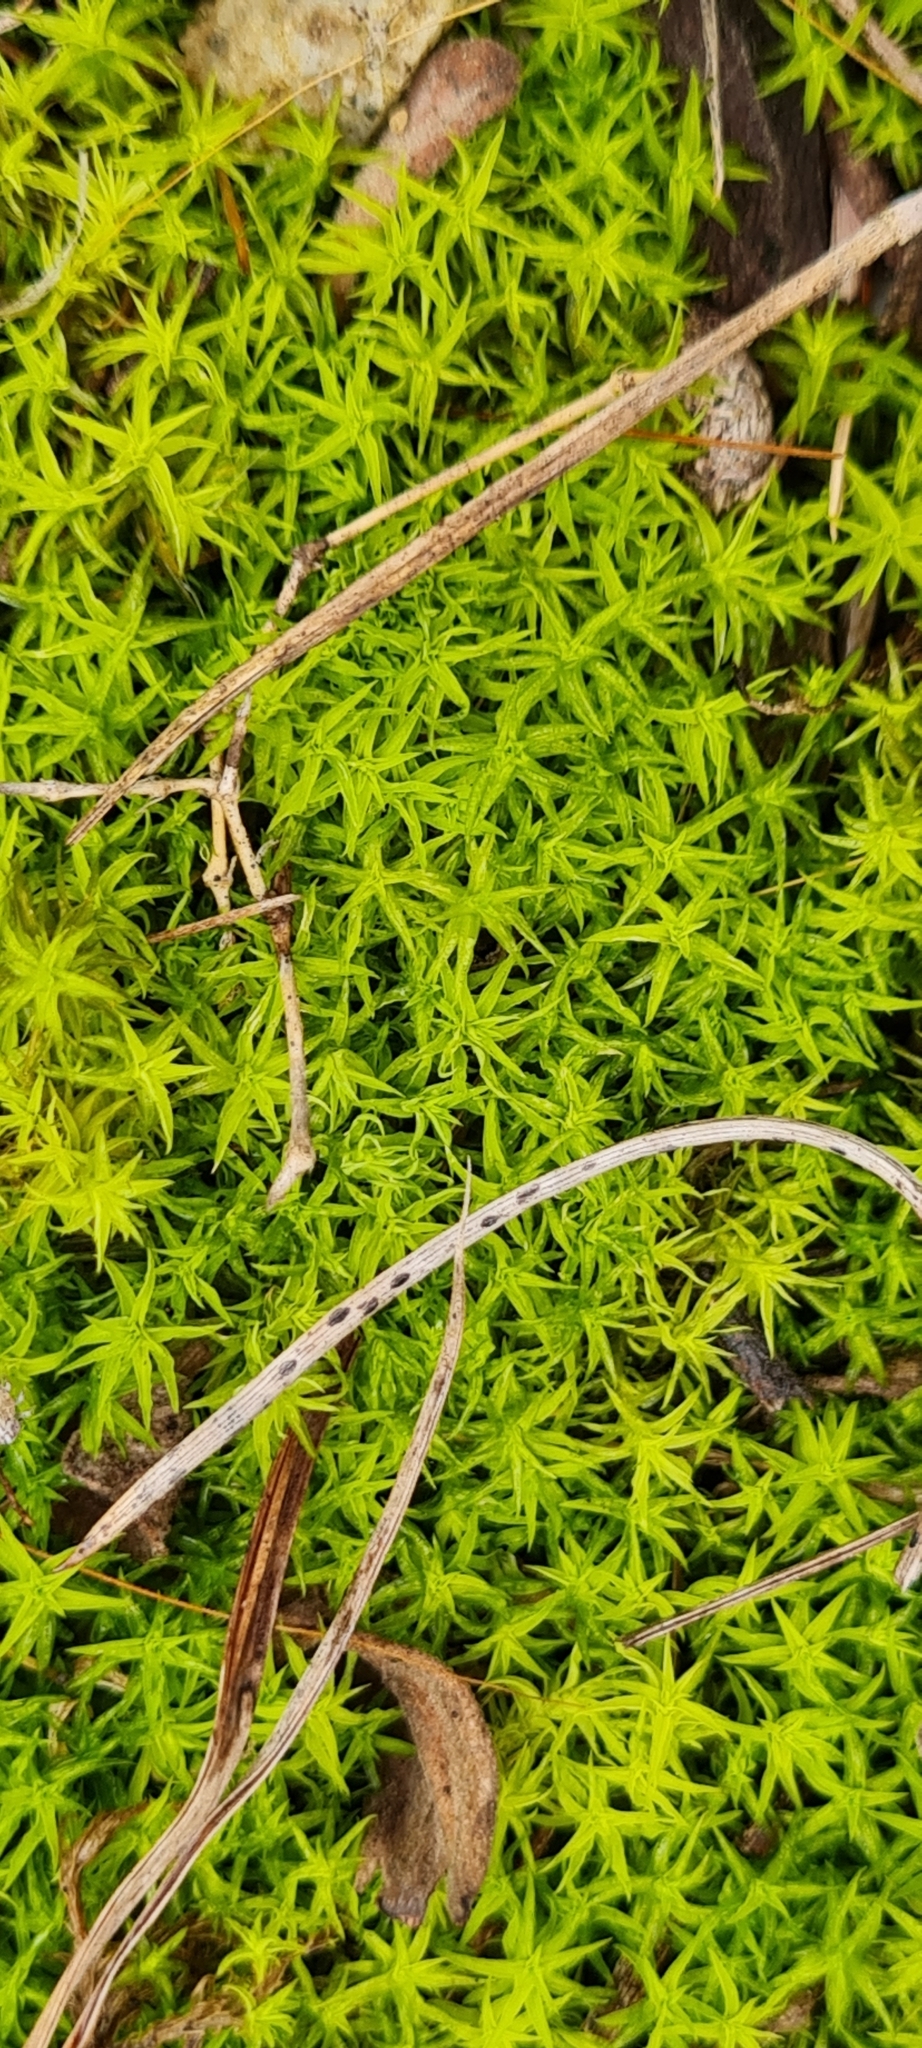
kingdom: Plantae
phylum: Bryophyta
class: Bryopsida
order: Pottiales
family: Pottiaceae
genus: Pleurochaete
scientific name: Pleurochaete squarrosa
